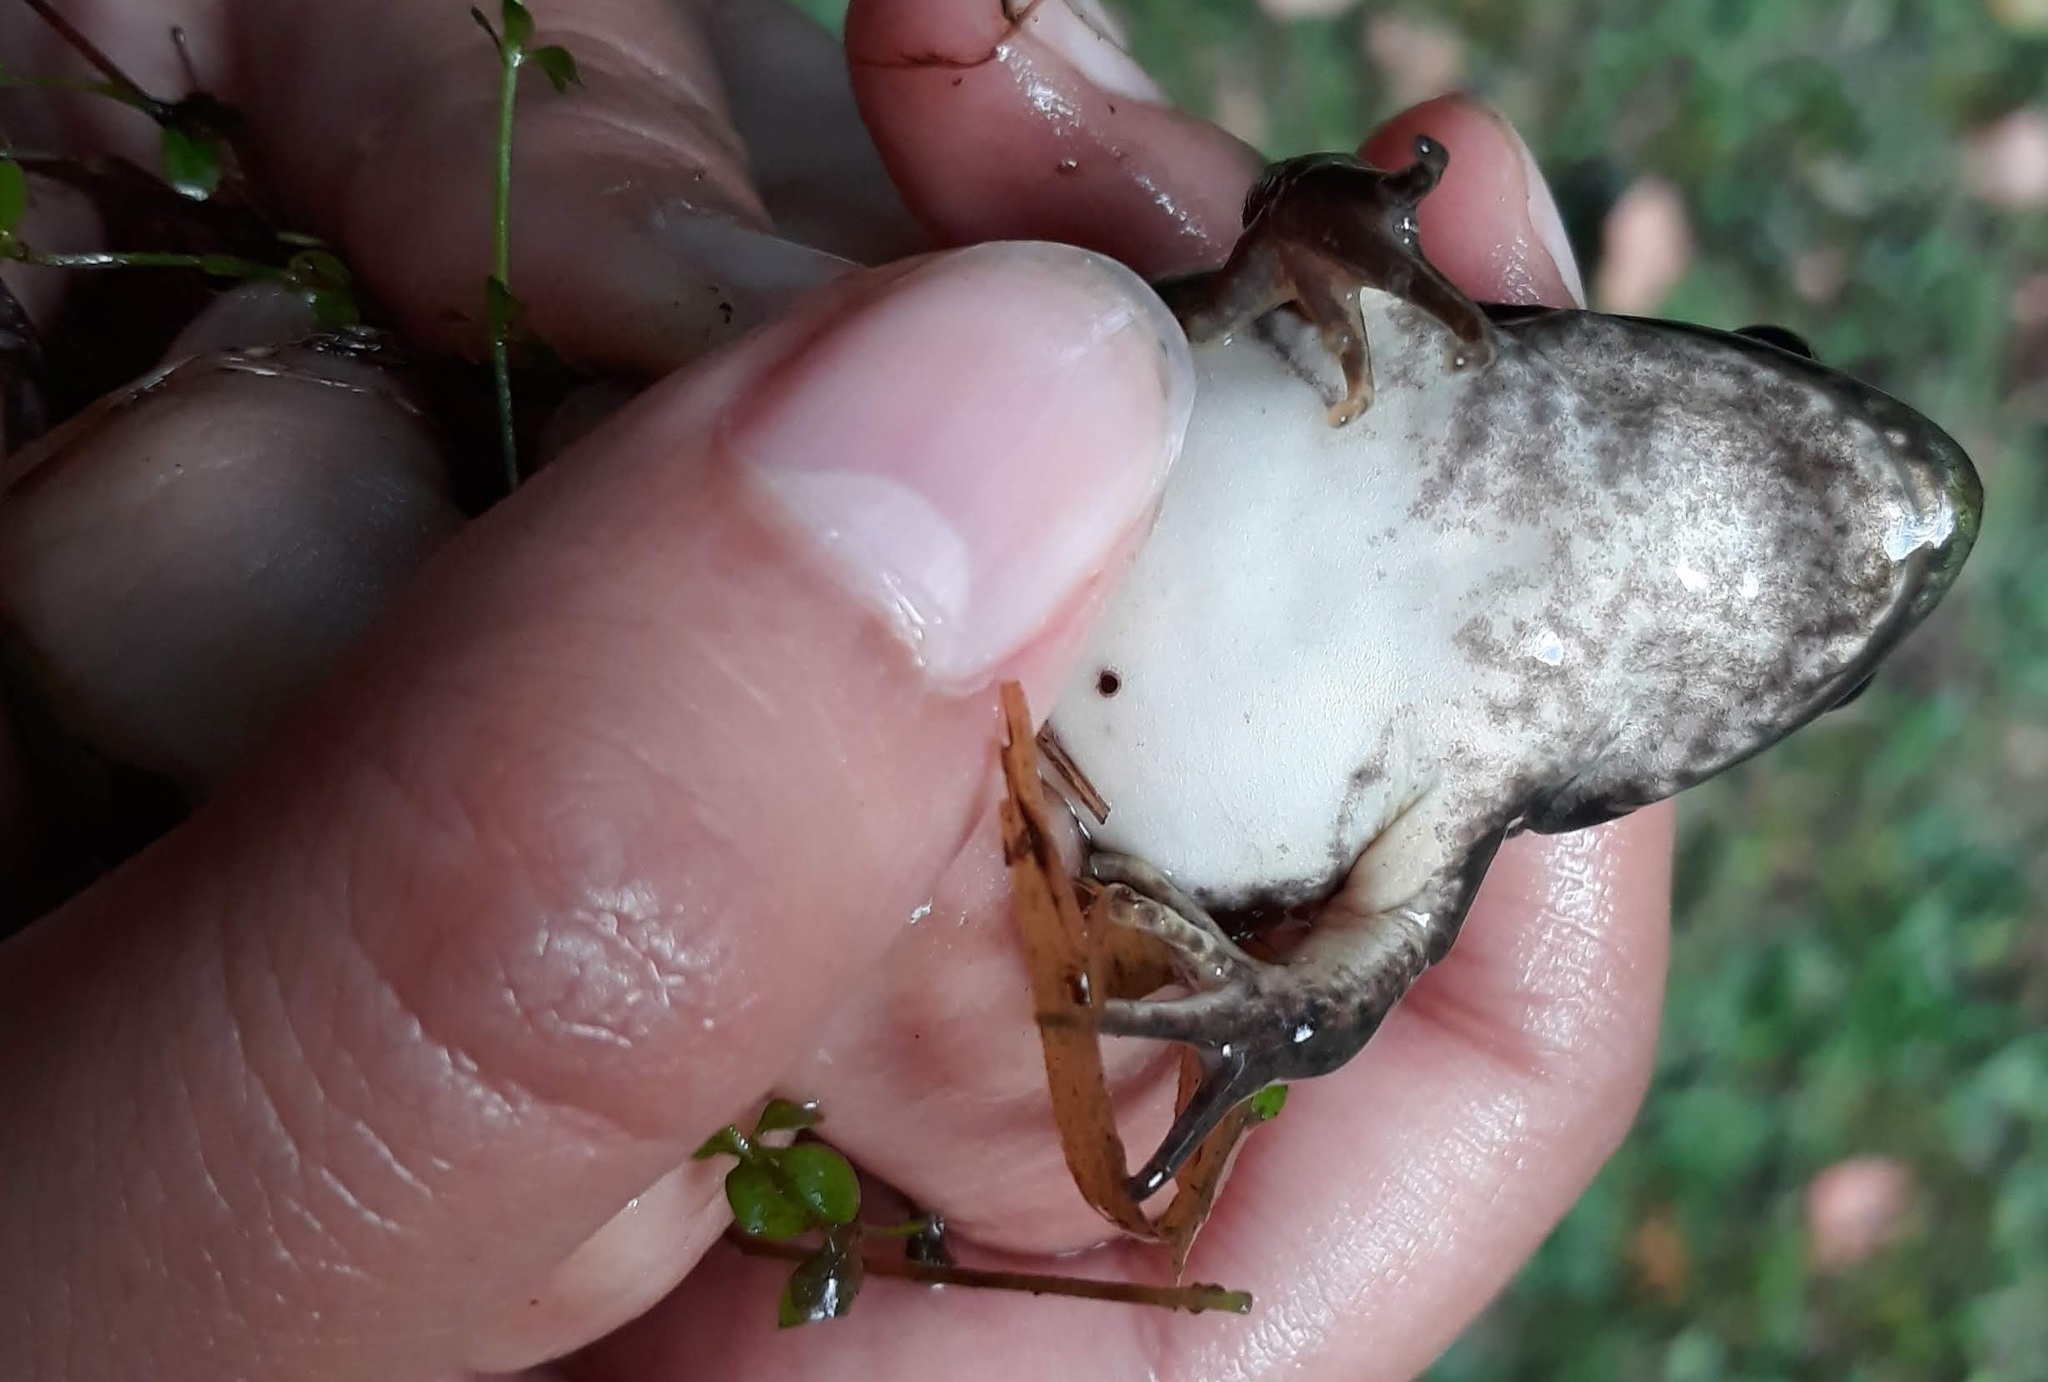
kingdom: Animalia
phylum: Chordata
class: Amphibia
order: Anura
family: Ranidae
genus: Lithobates
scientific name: Lithobates clamitans
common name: Green frog
